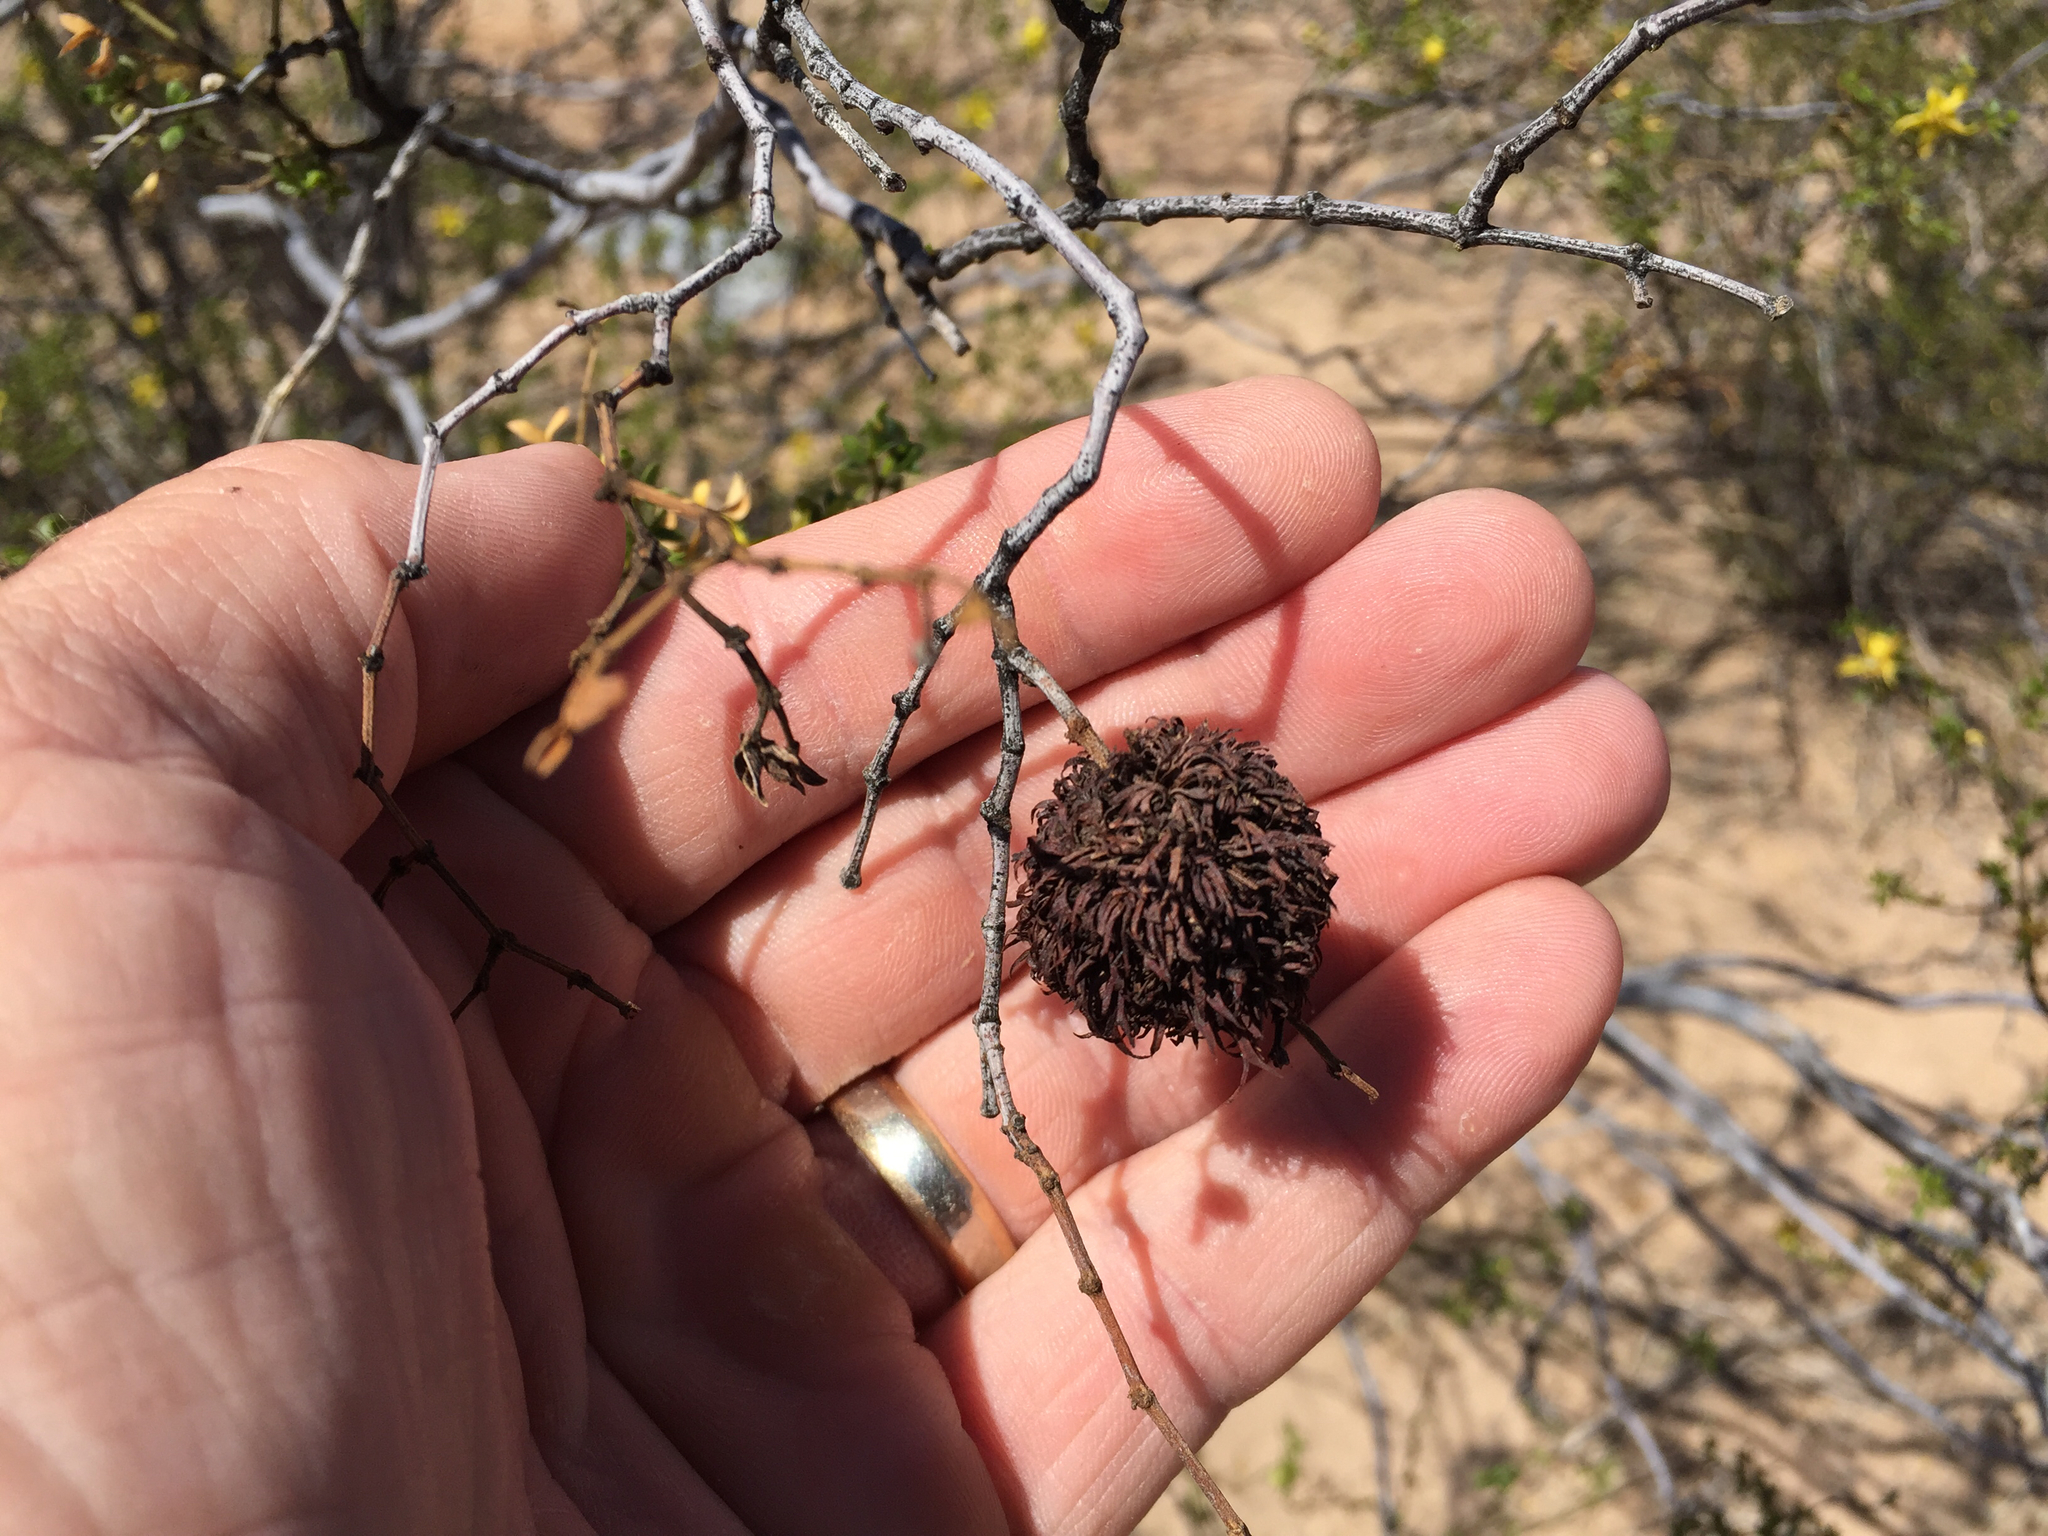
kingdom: Animalia
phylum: Arthropoda
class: Insecta
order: Diptera
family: Cecidomyiidae
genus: Asphondylia
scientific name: Asphondylia auripila
